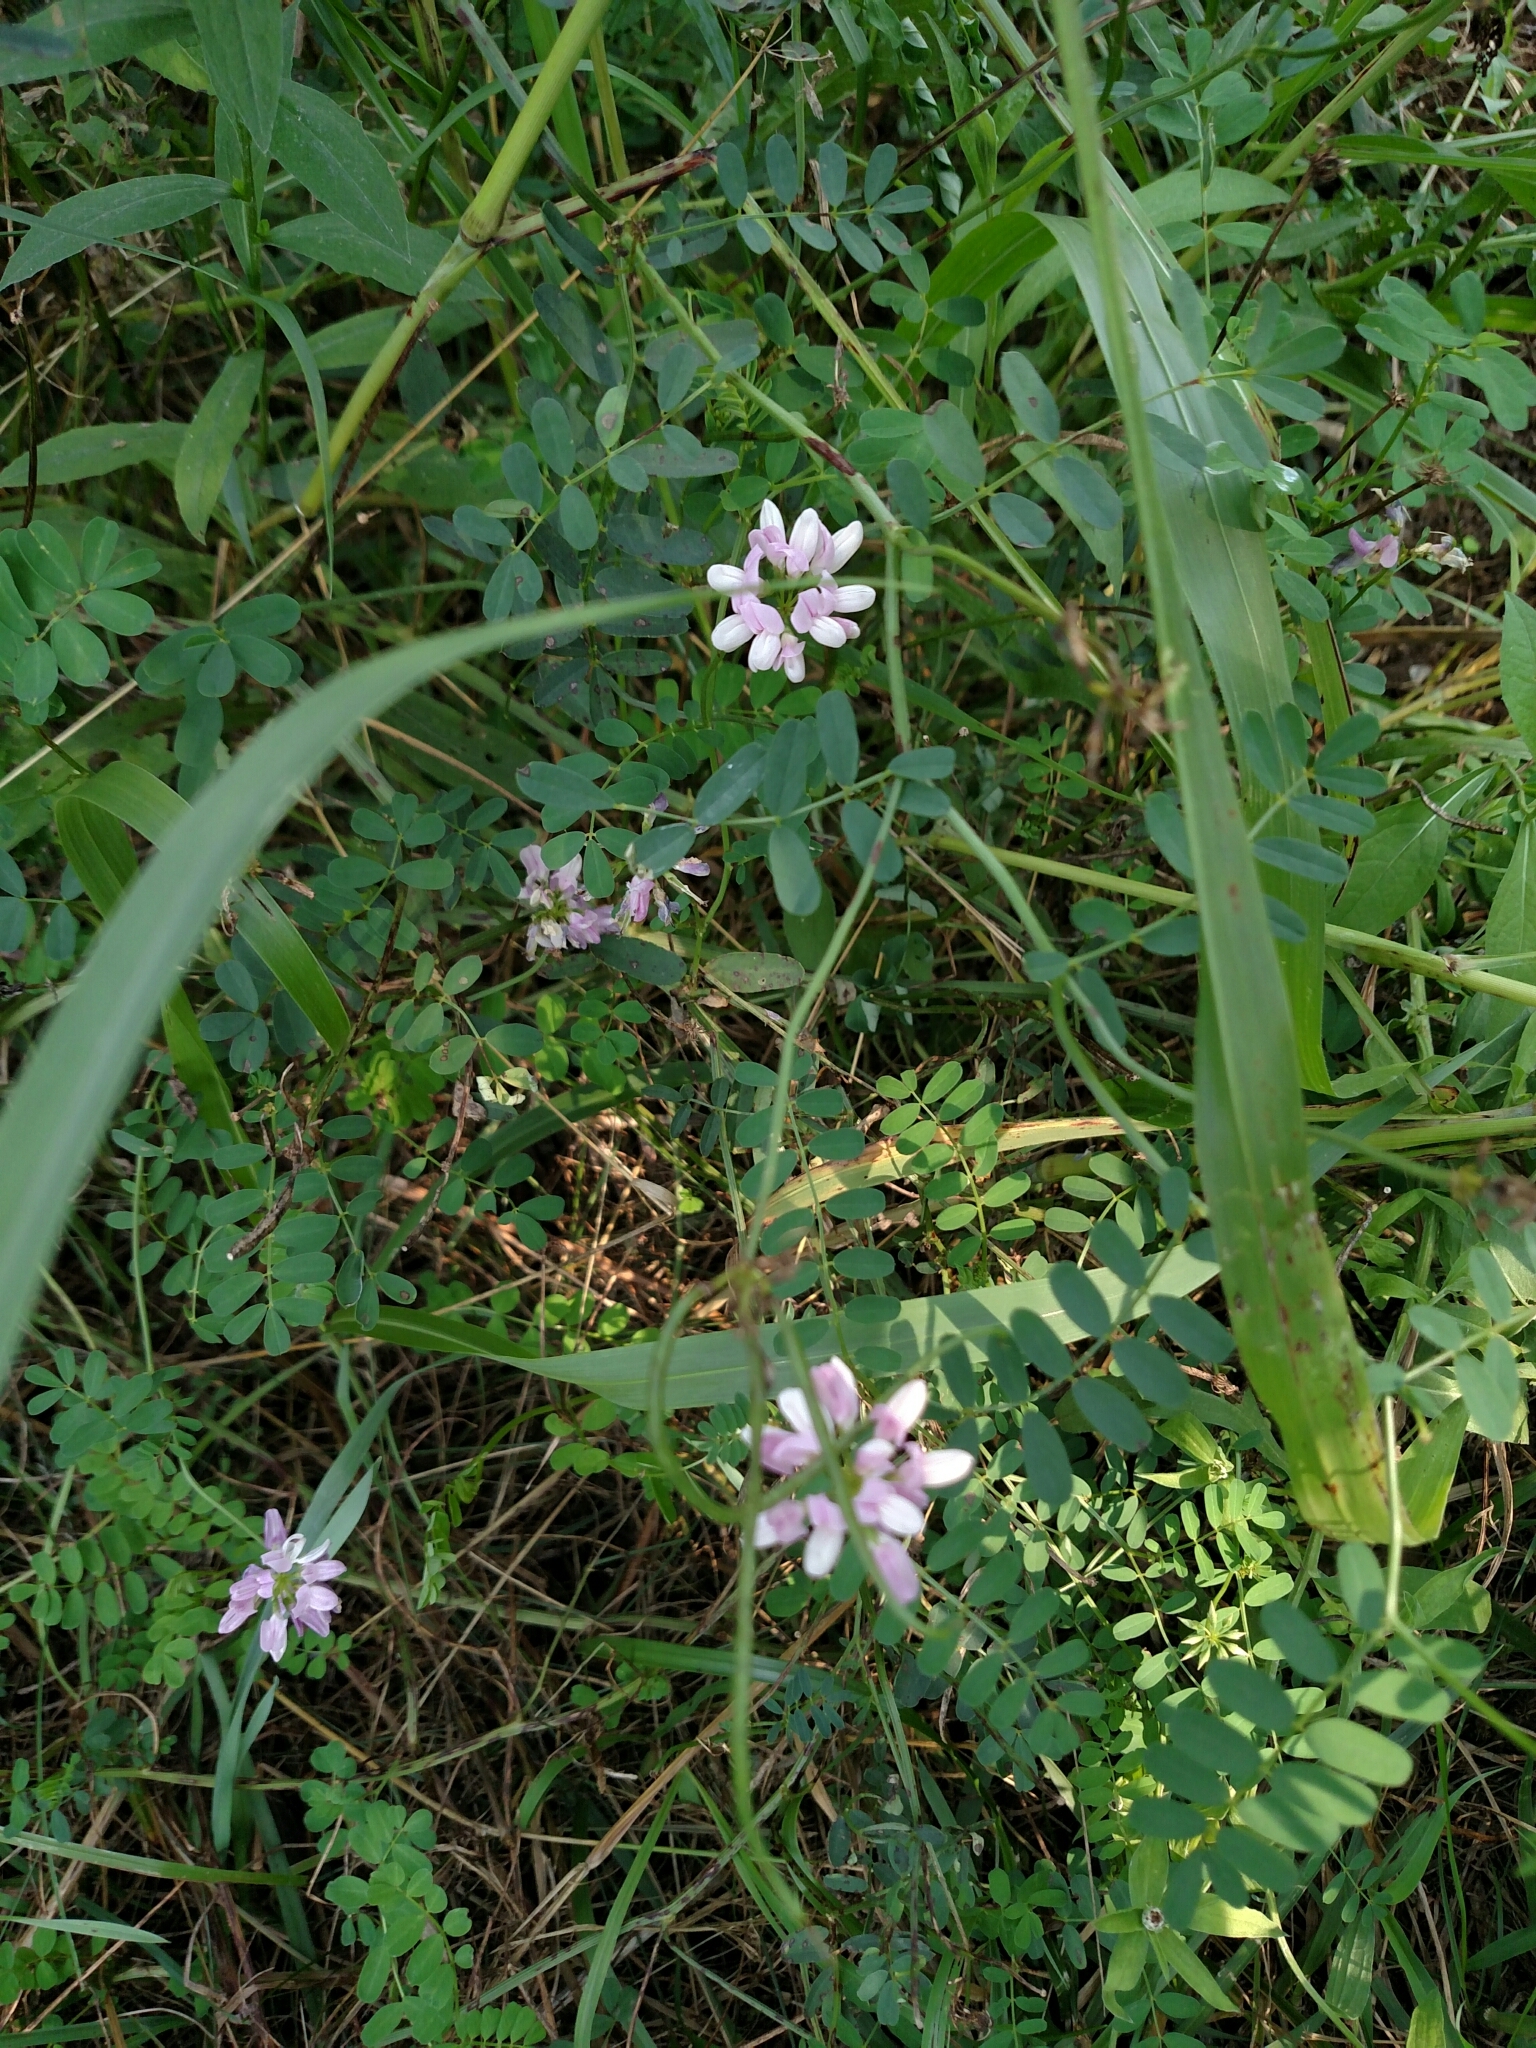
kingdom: Plantae
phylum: Tracheophyta
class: Magnoliopsida
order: Fabales
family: Fabaceae
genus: Coronilla
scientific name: Coronilla varia
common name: Crownvetch
